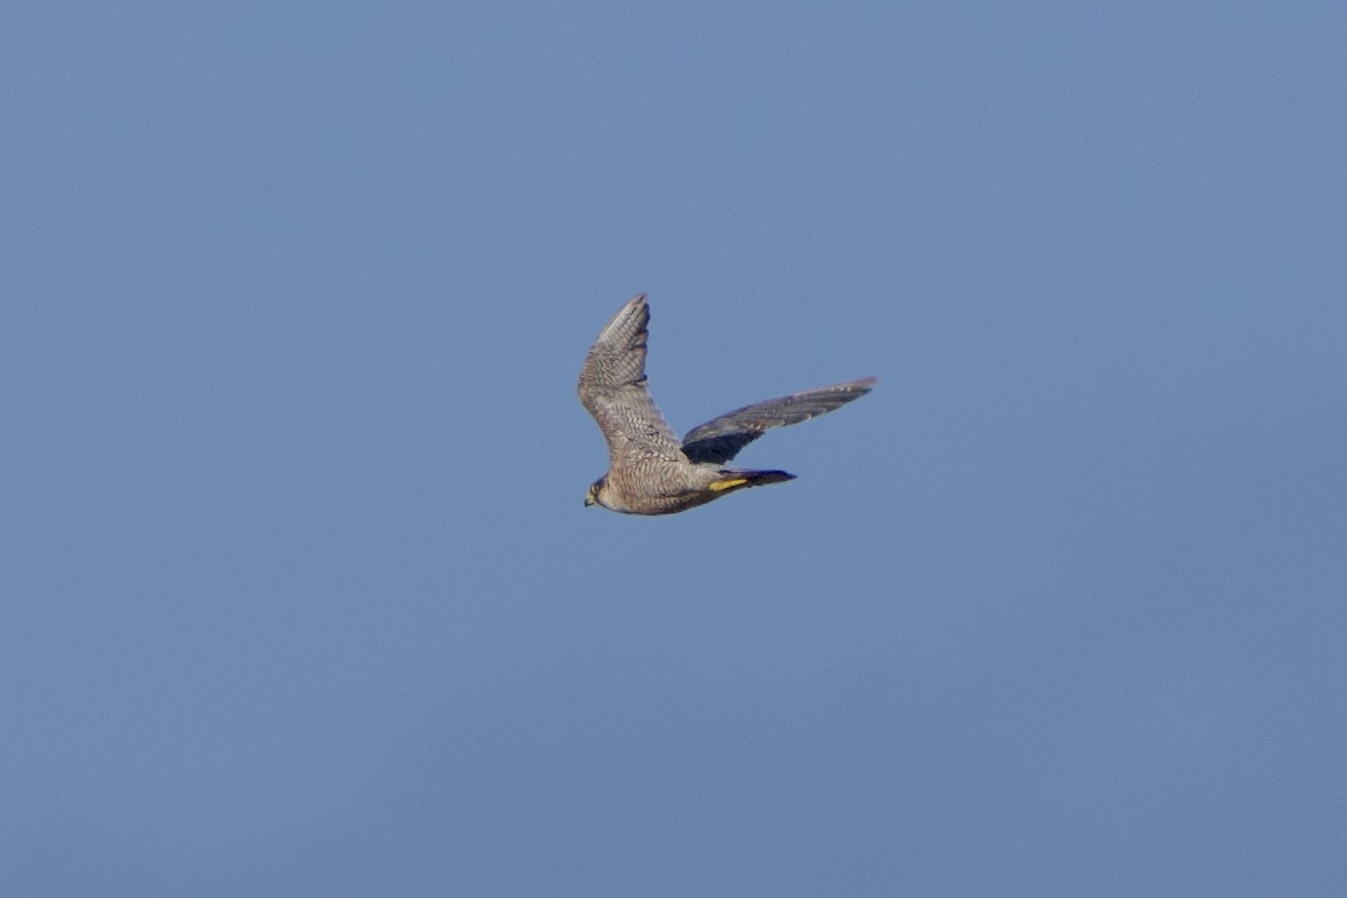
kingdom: Animalia
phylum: Chordata
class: Aves
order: Falconiformes
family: Falconidae
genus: Falco
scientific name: Falco peregrinus
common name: Peregrine falcon
